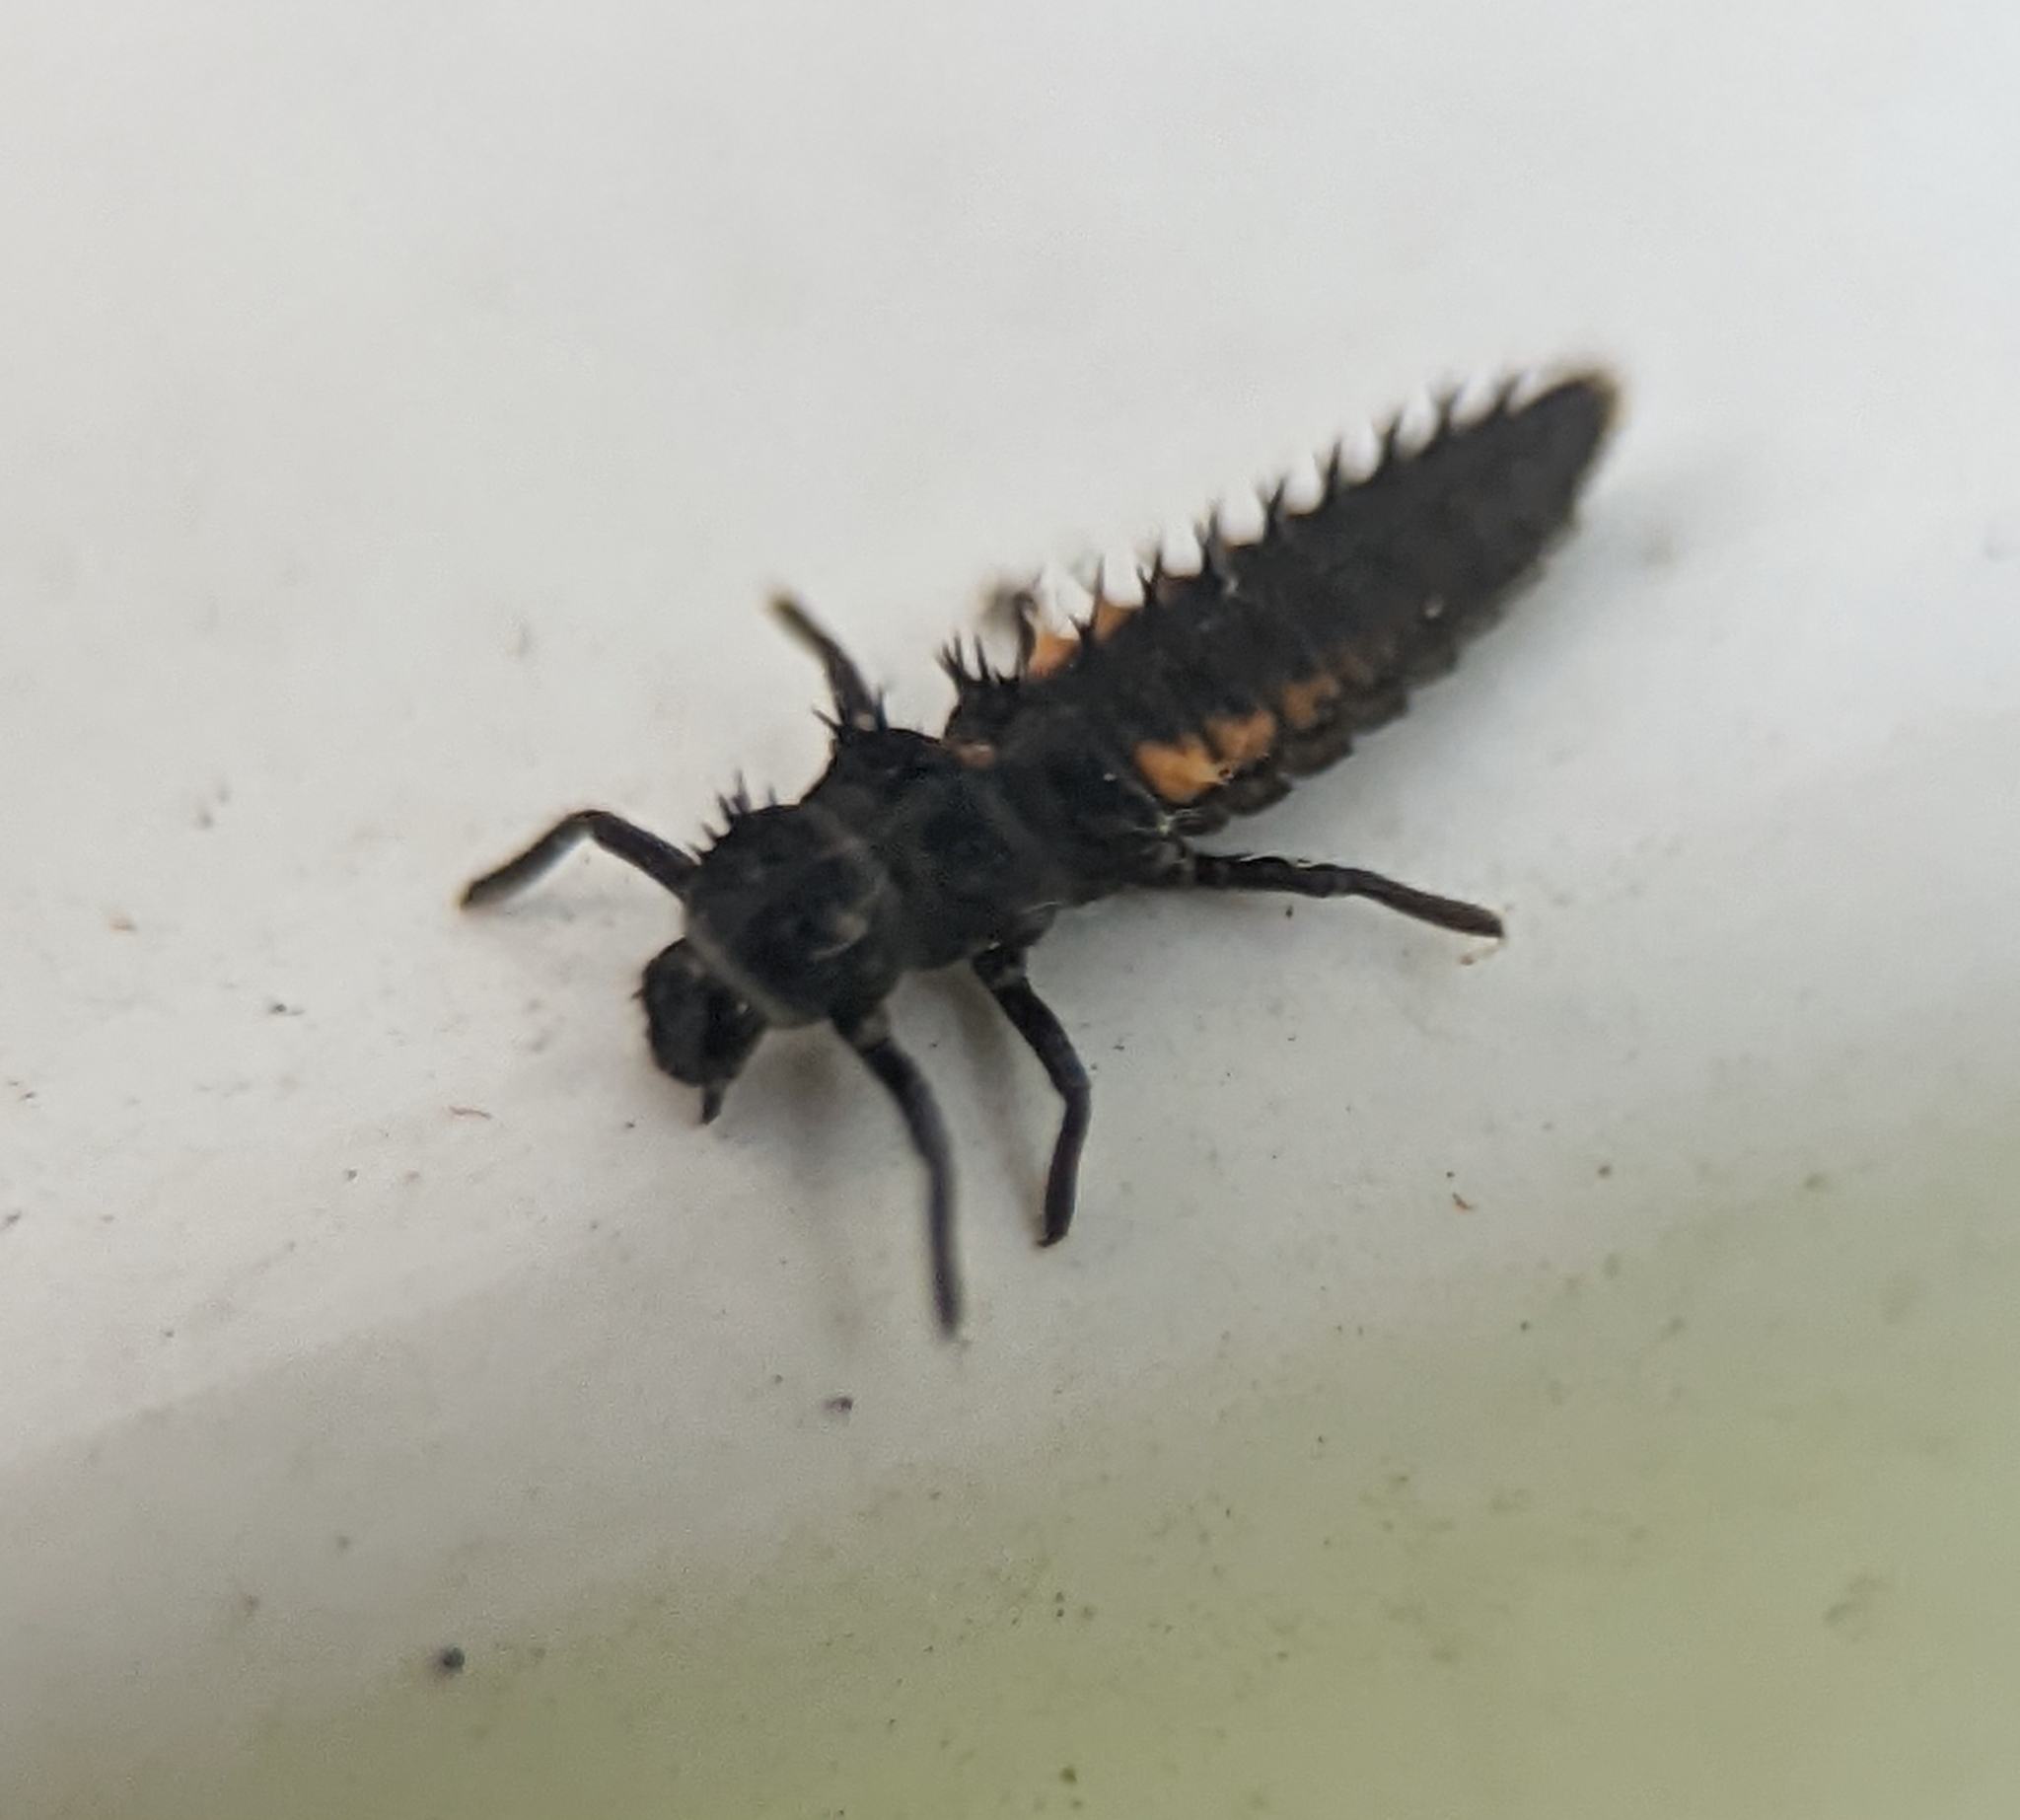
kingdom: Animalia
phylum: Arthropoda
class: Insecta
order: Coleoptera
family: Coccinellidae
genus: Harmonia
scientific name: Harmonia axyridis
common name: Harlequin ladybird
